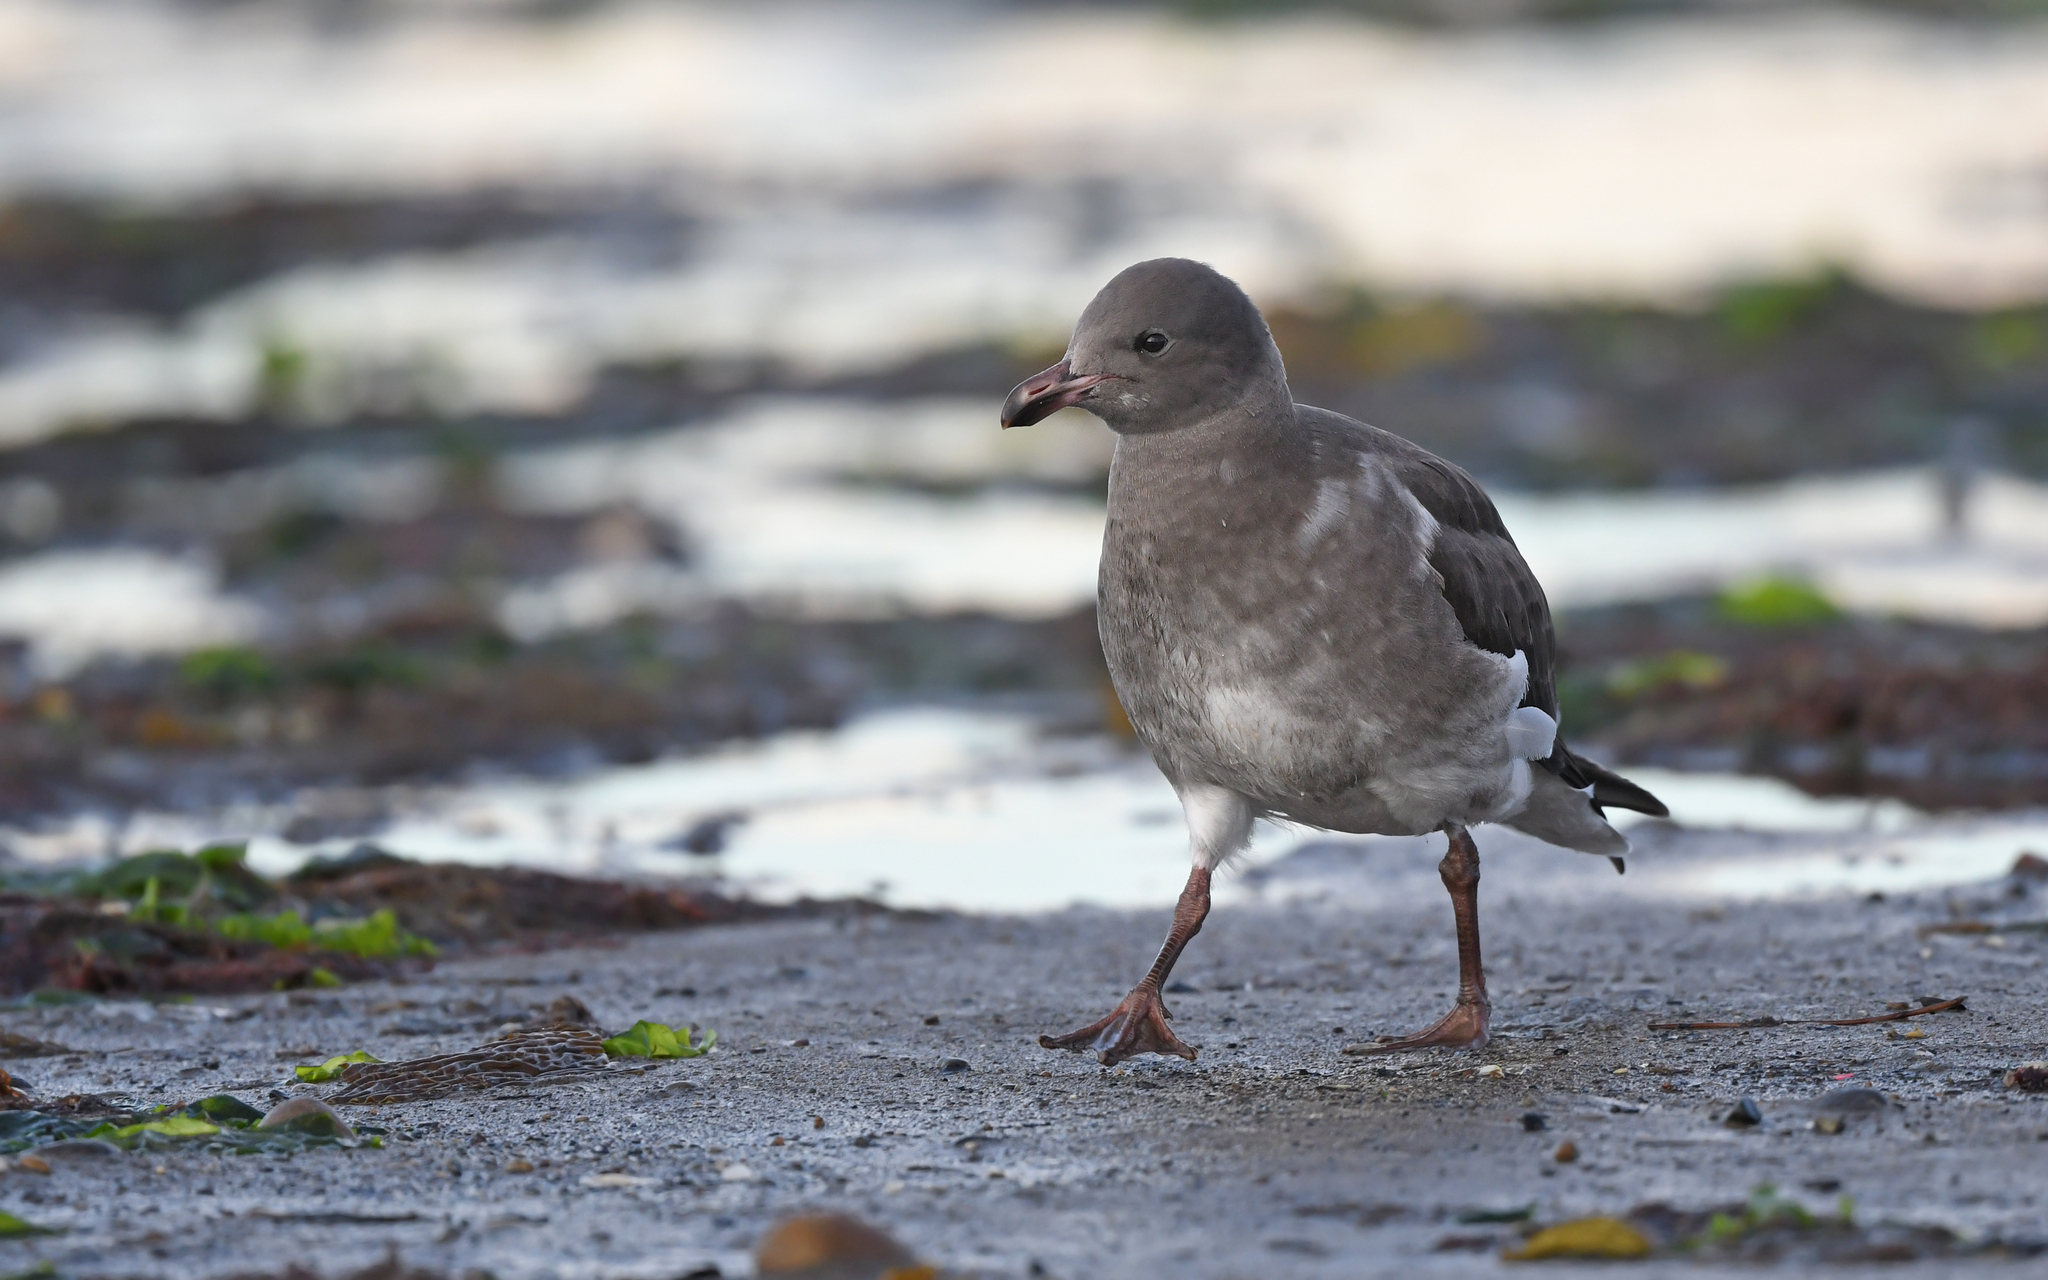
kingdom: Animalia
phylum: Chordata
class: Aves
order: Charadriiformes
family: Laridae
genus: Leucophaeus
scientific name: Leucophaeus scoresbii
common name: Dolphin gull
